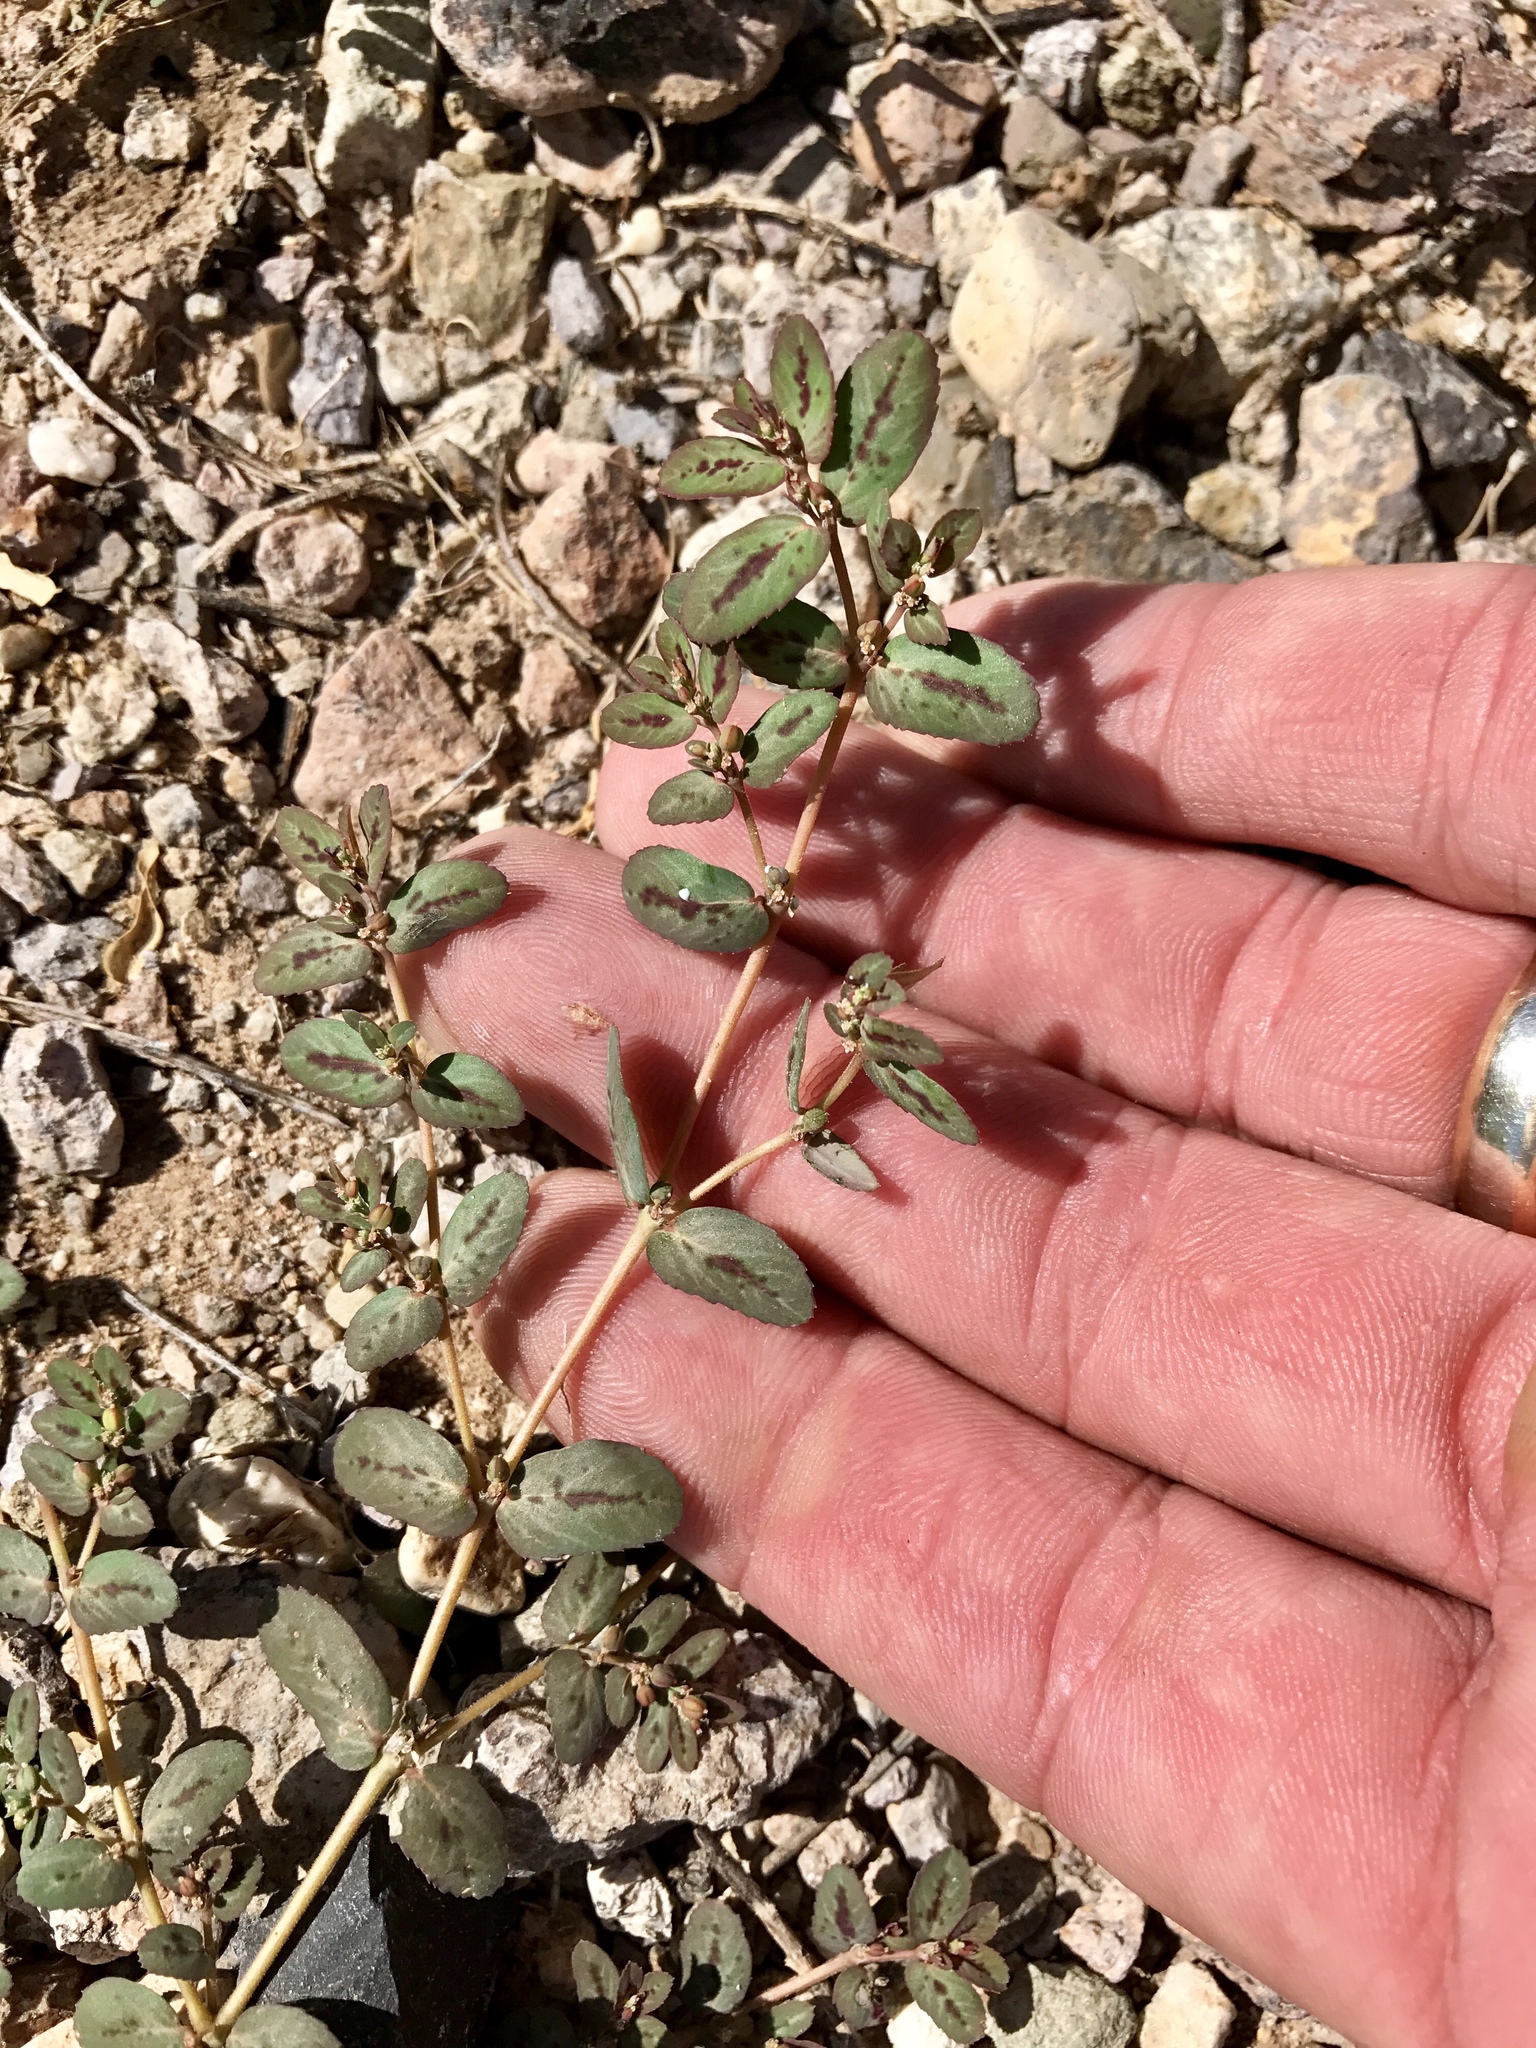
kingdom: Plantae
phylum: Tracheophyta
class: Magnoliopsida
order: Malpighiales
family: Euphorbiaceae
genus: Euphorbia
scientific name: Euphorbia abramsiana
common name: Abram's spurge
